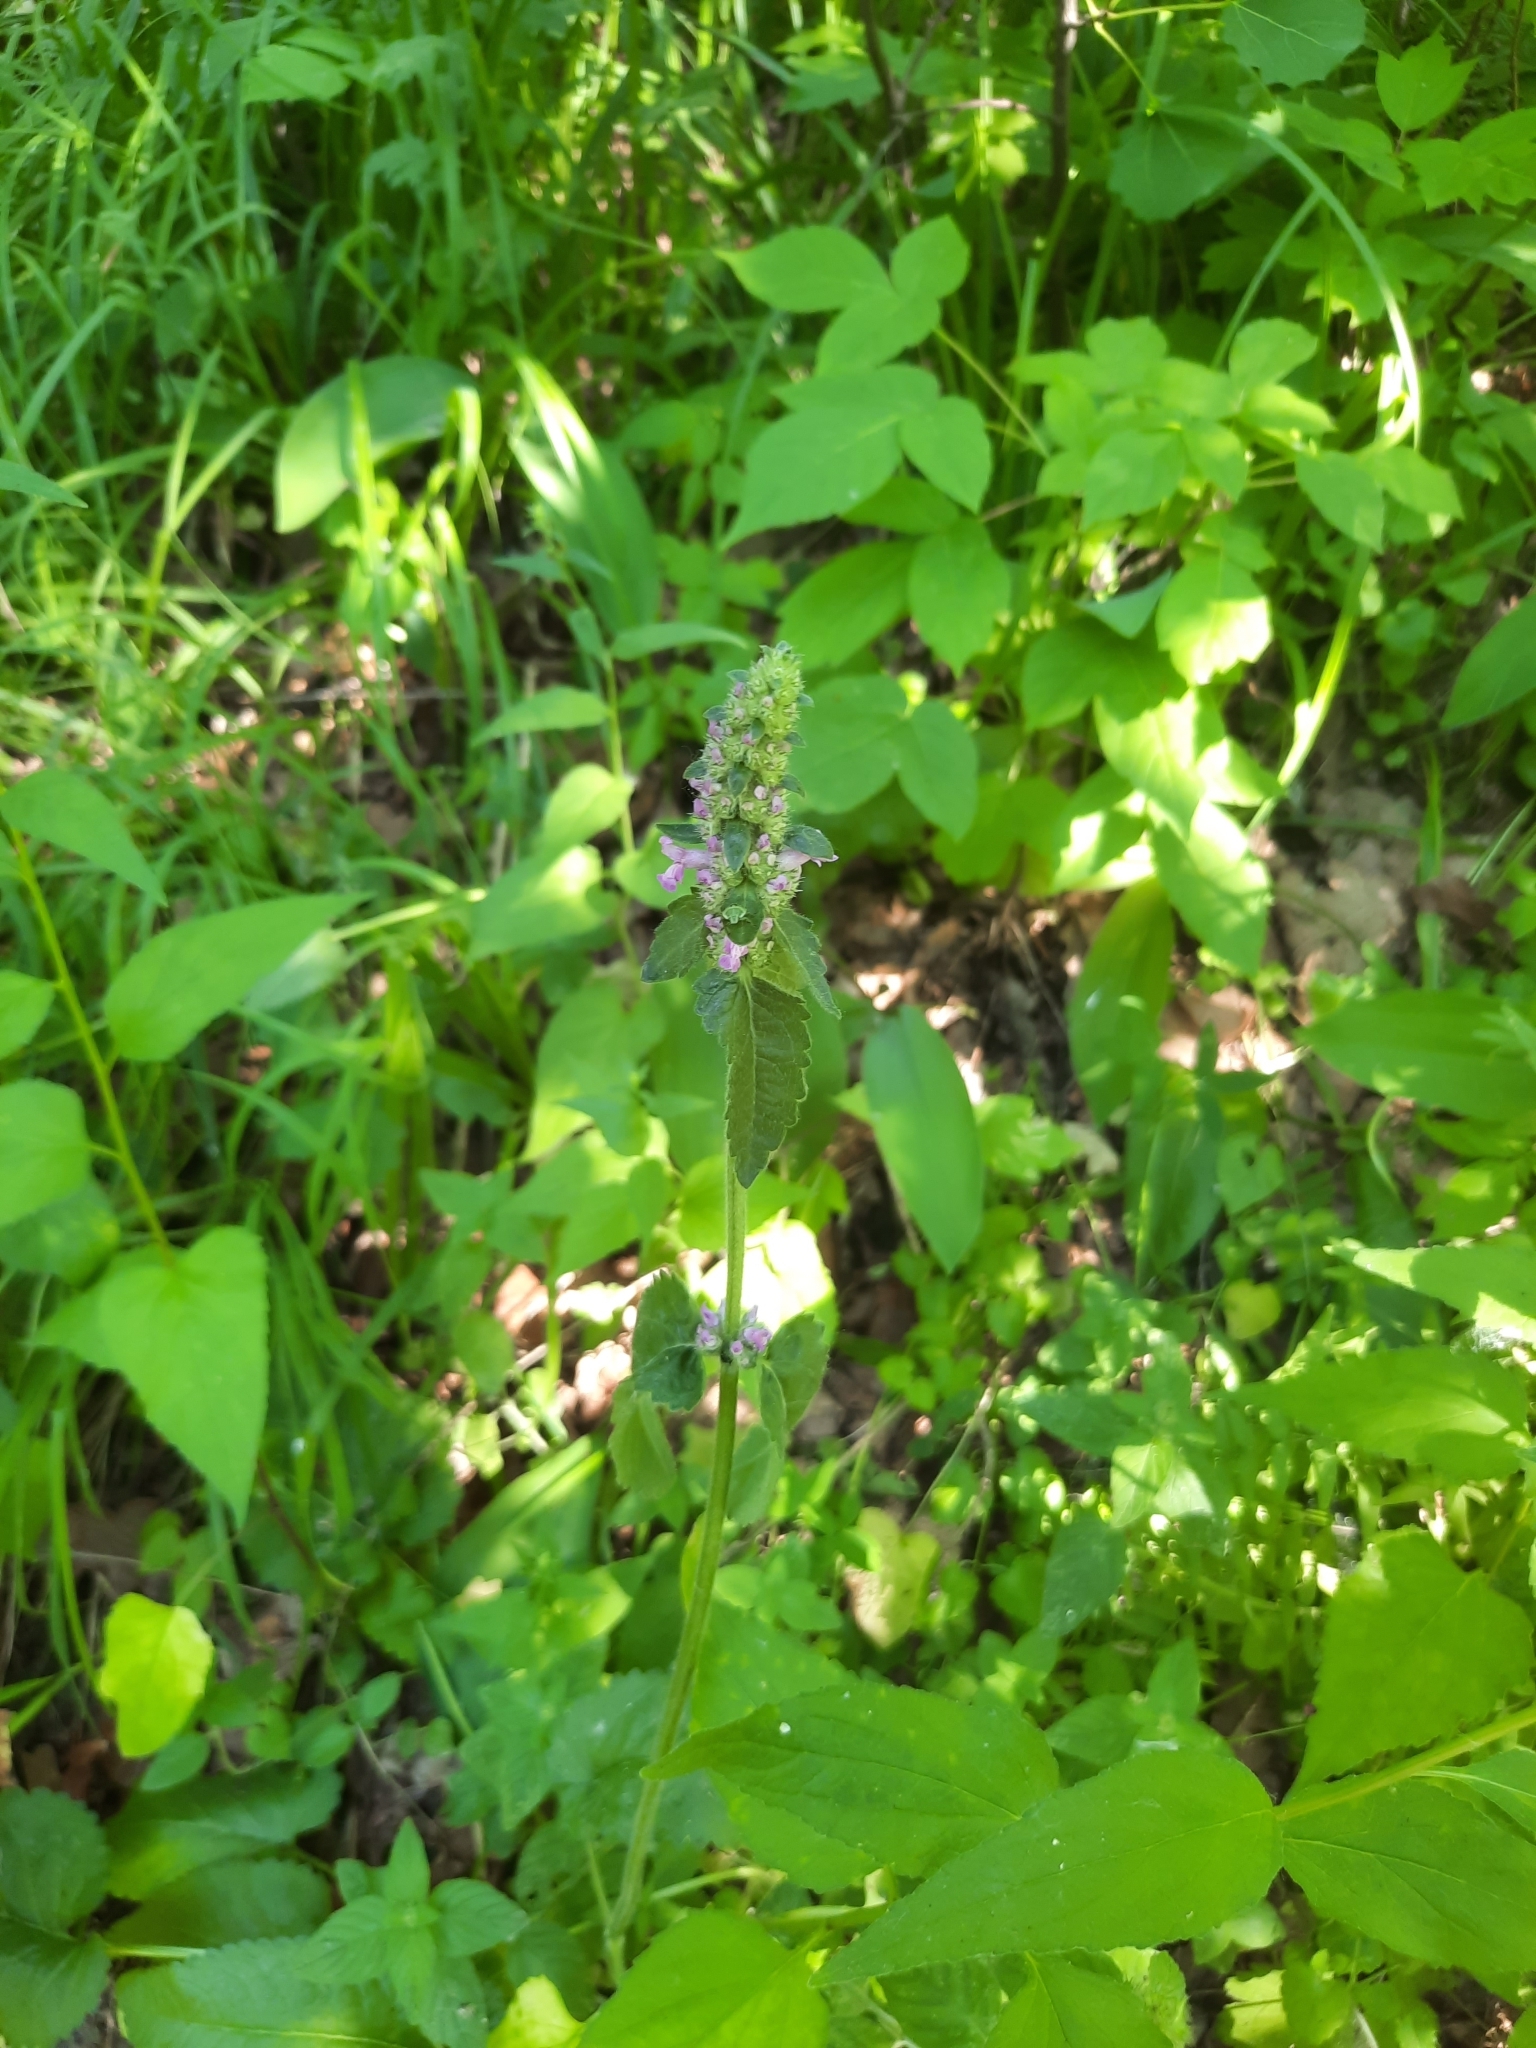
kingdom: Plantae
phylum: Tracheophyta
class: Magnoliopsida
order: Lamiales
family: Lamiaceae
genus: Betonica
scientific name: Betonica officinalis
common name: Bishop's-wort
